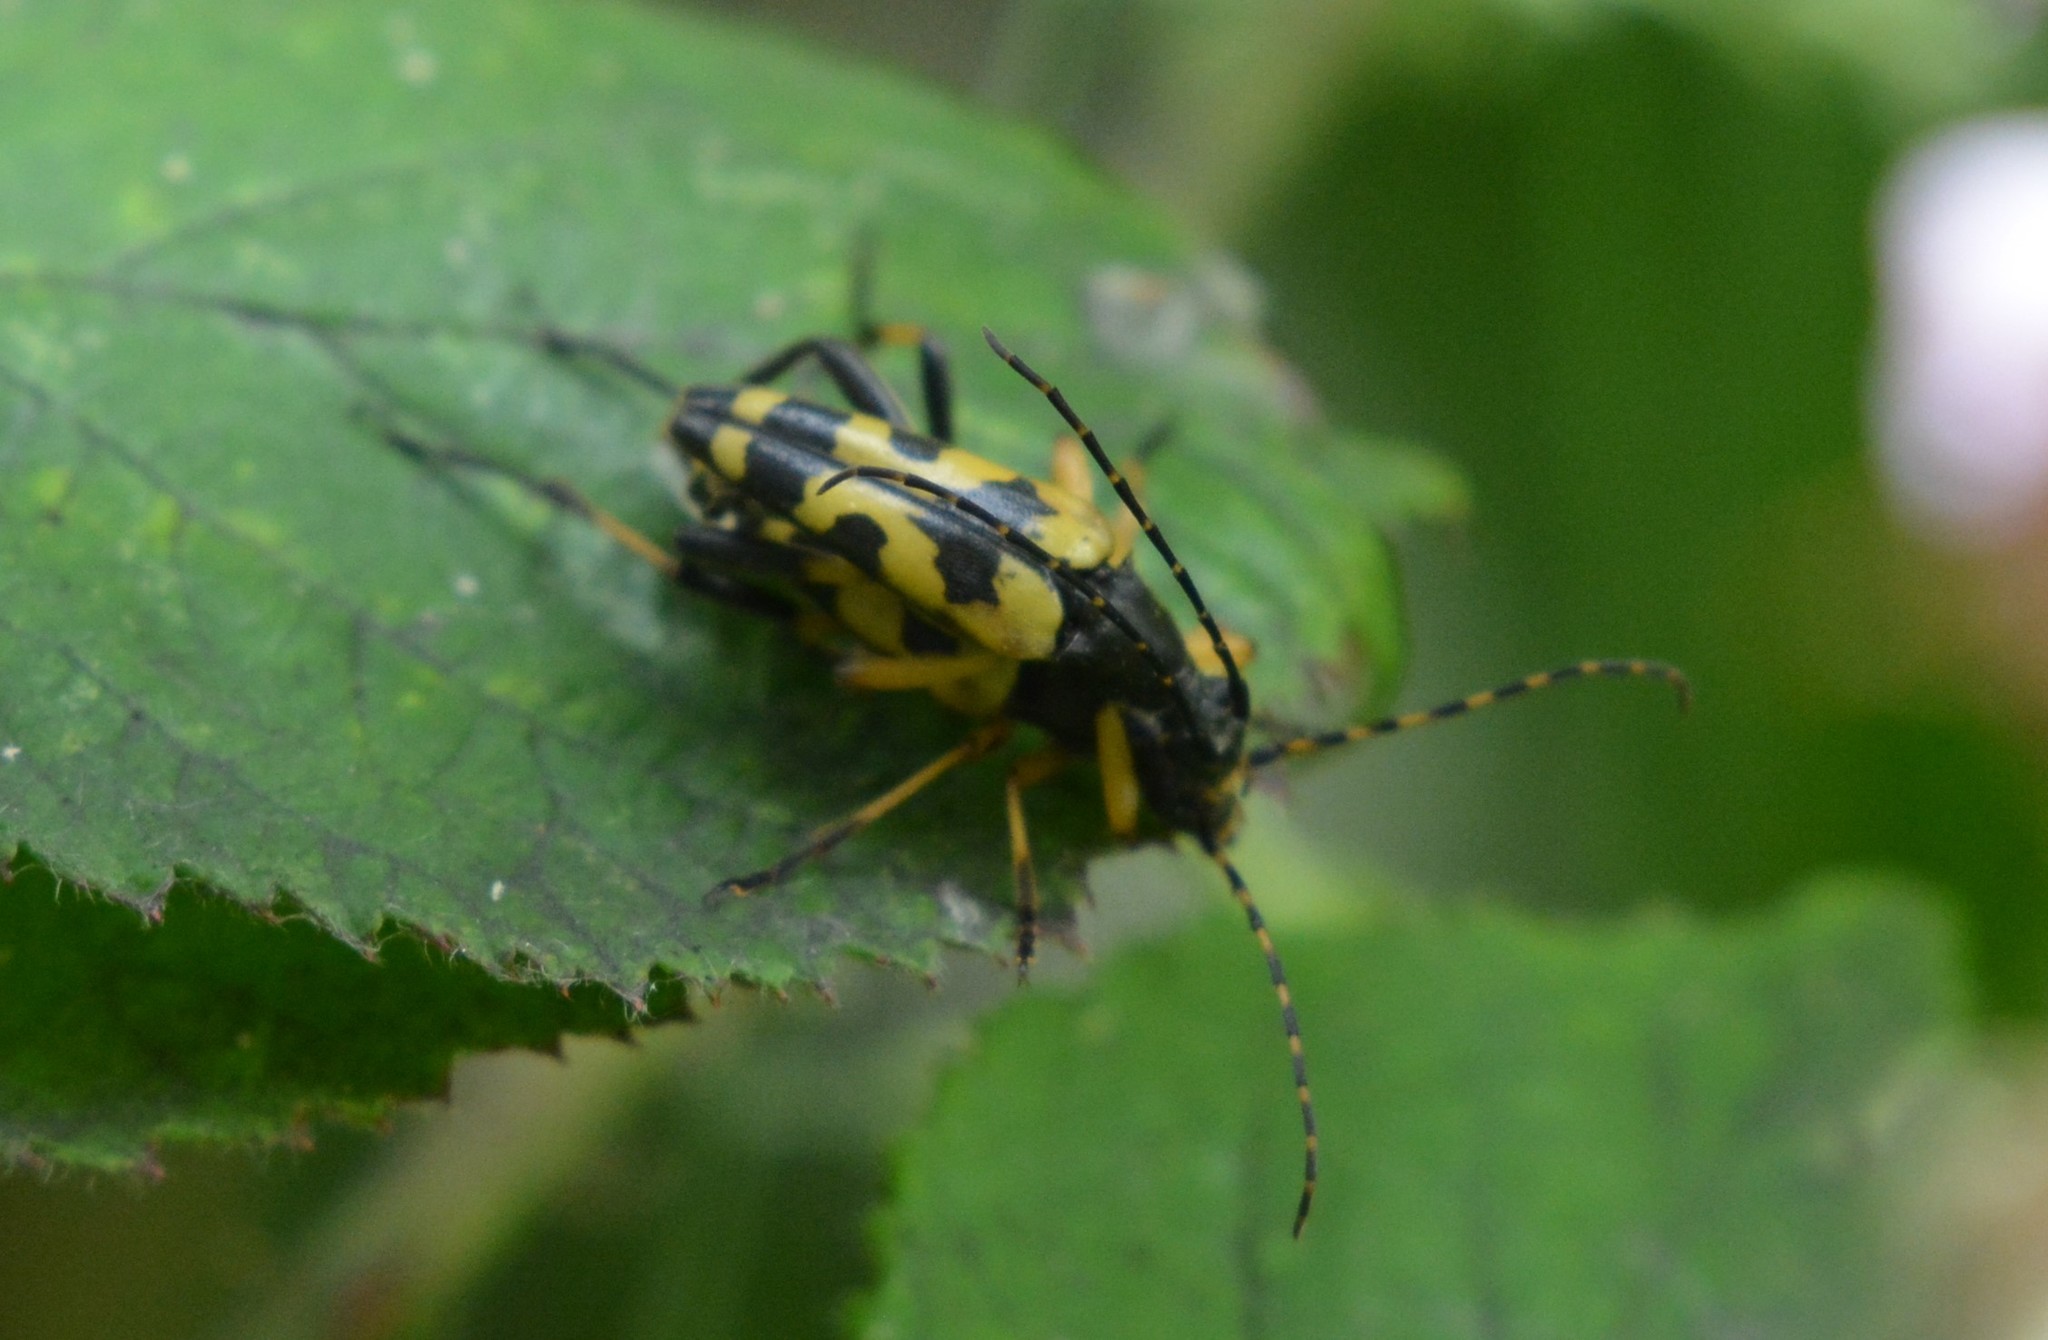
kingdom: Animalia
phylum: Arthropoda
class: Insecta
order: Coleoptera
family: Cerambycidae
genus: Rutpela
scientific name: Rutpela maculata
